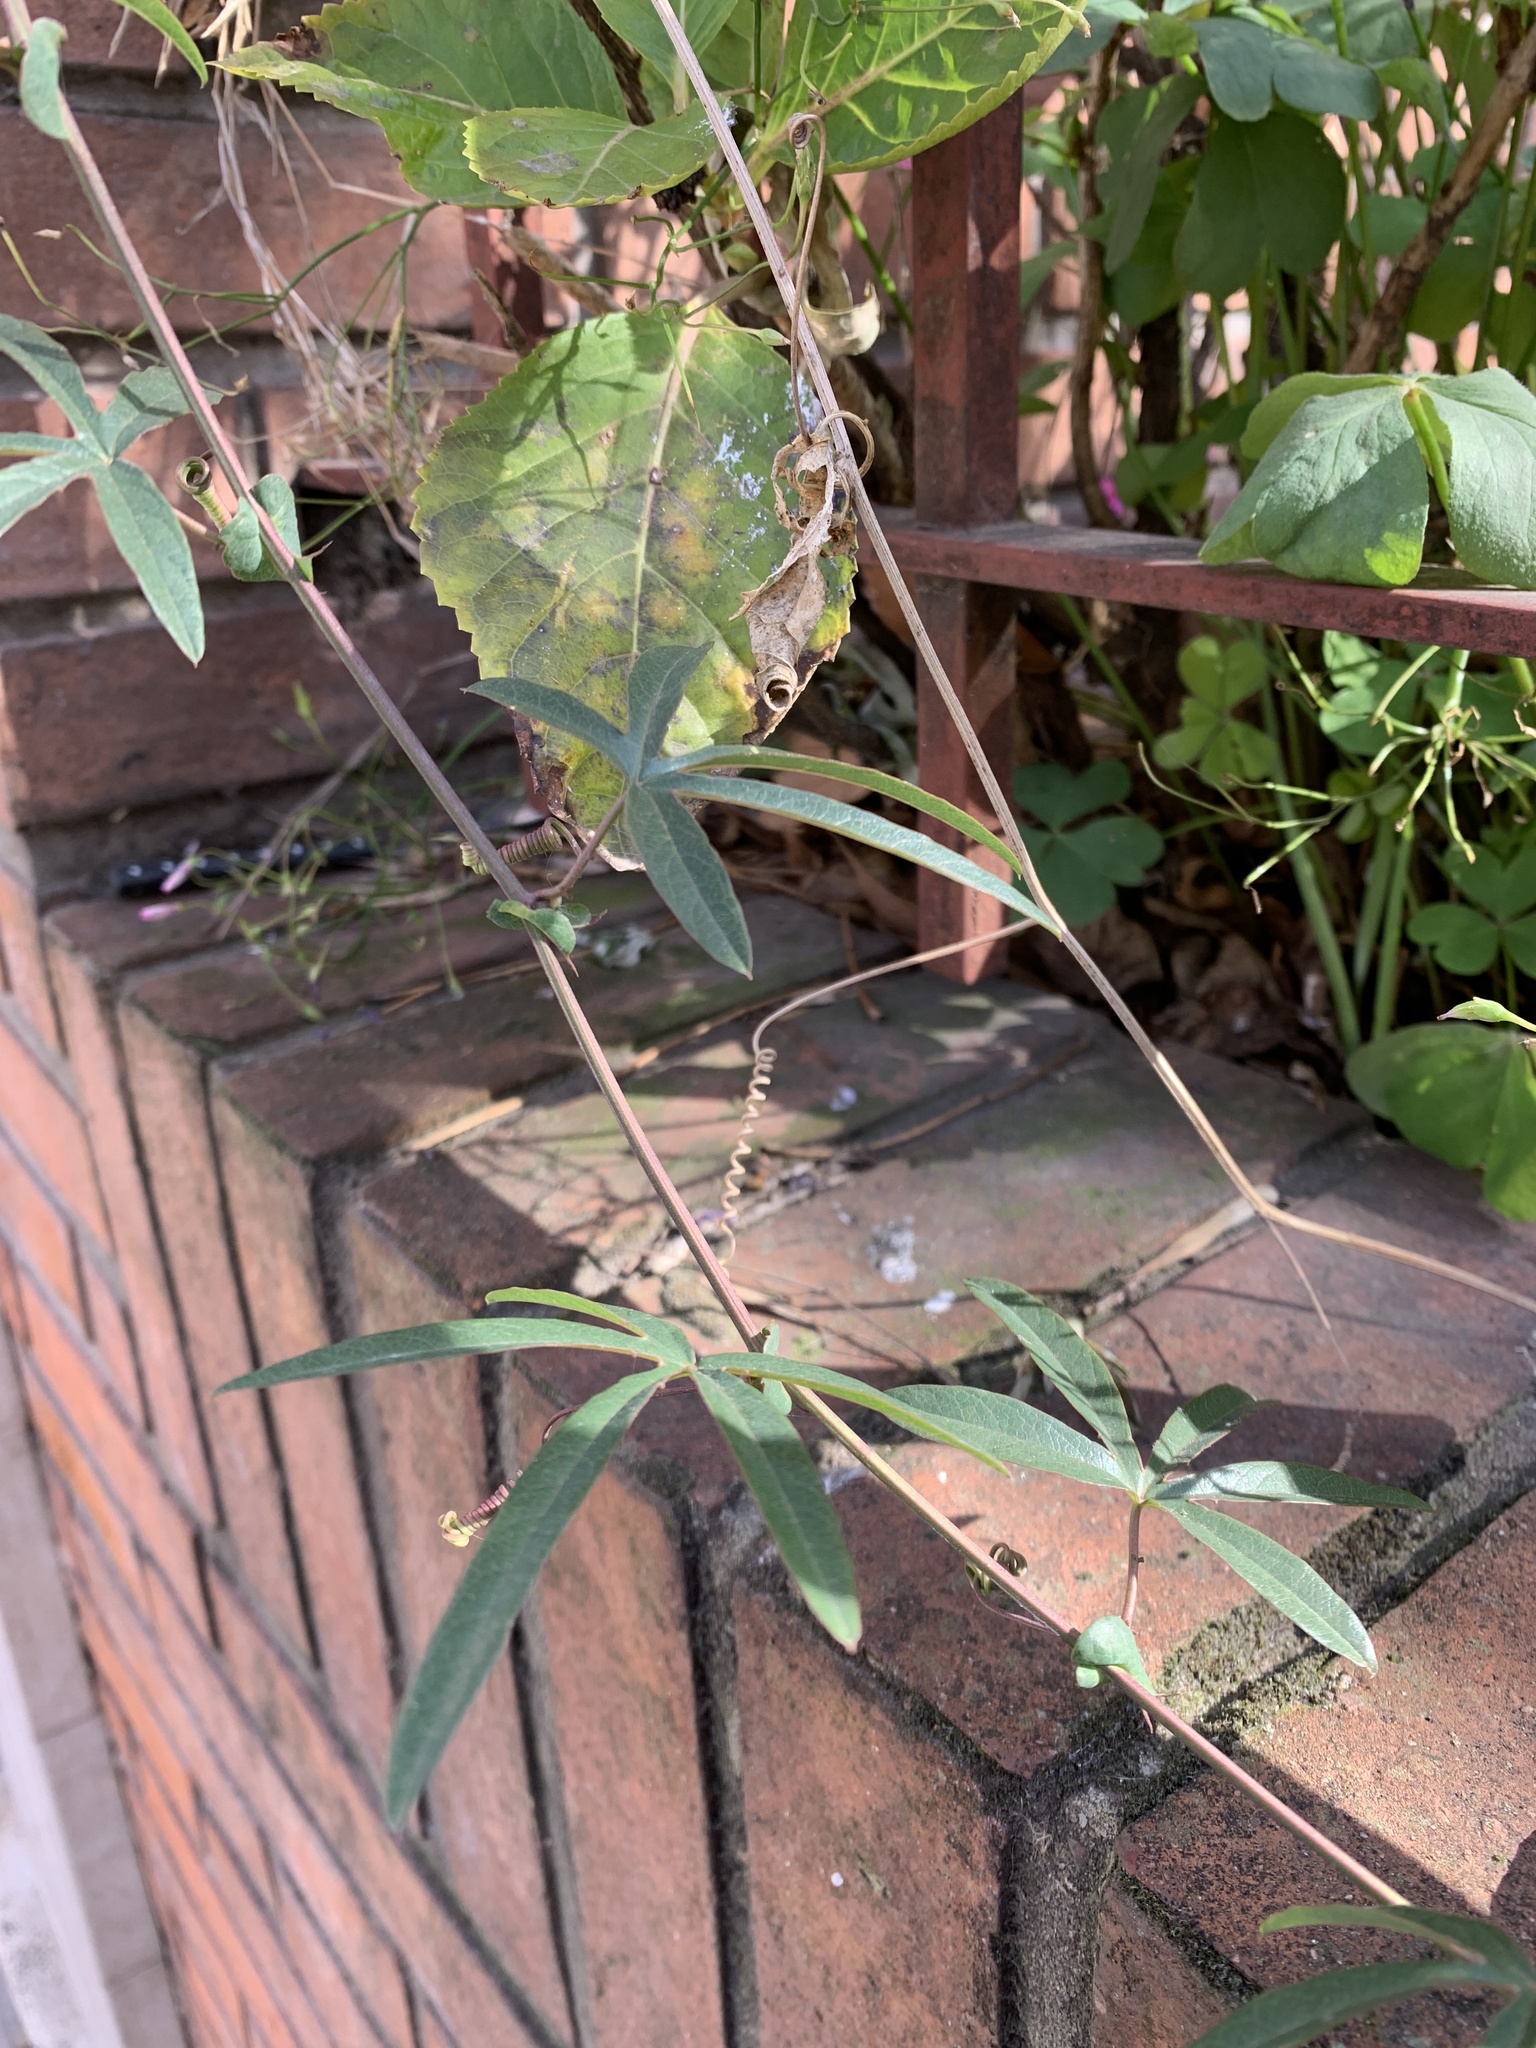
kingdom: Plantae
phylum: Tracheophyta
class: Magnoliopsida
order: Malpighiales
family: Passifloraceae
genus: Passiflora
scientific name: Passiflora caerulea
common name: Blue passionflower
